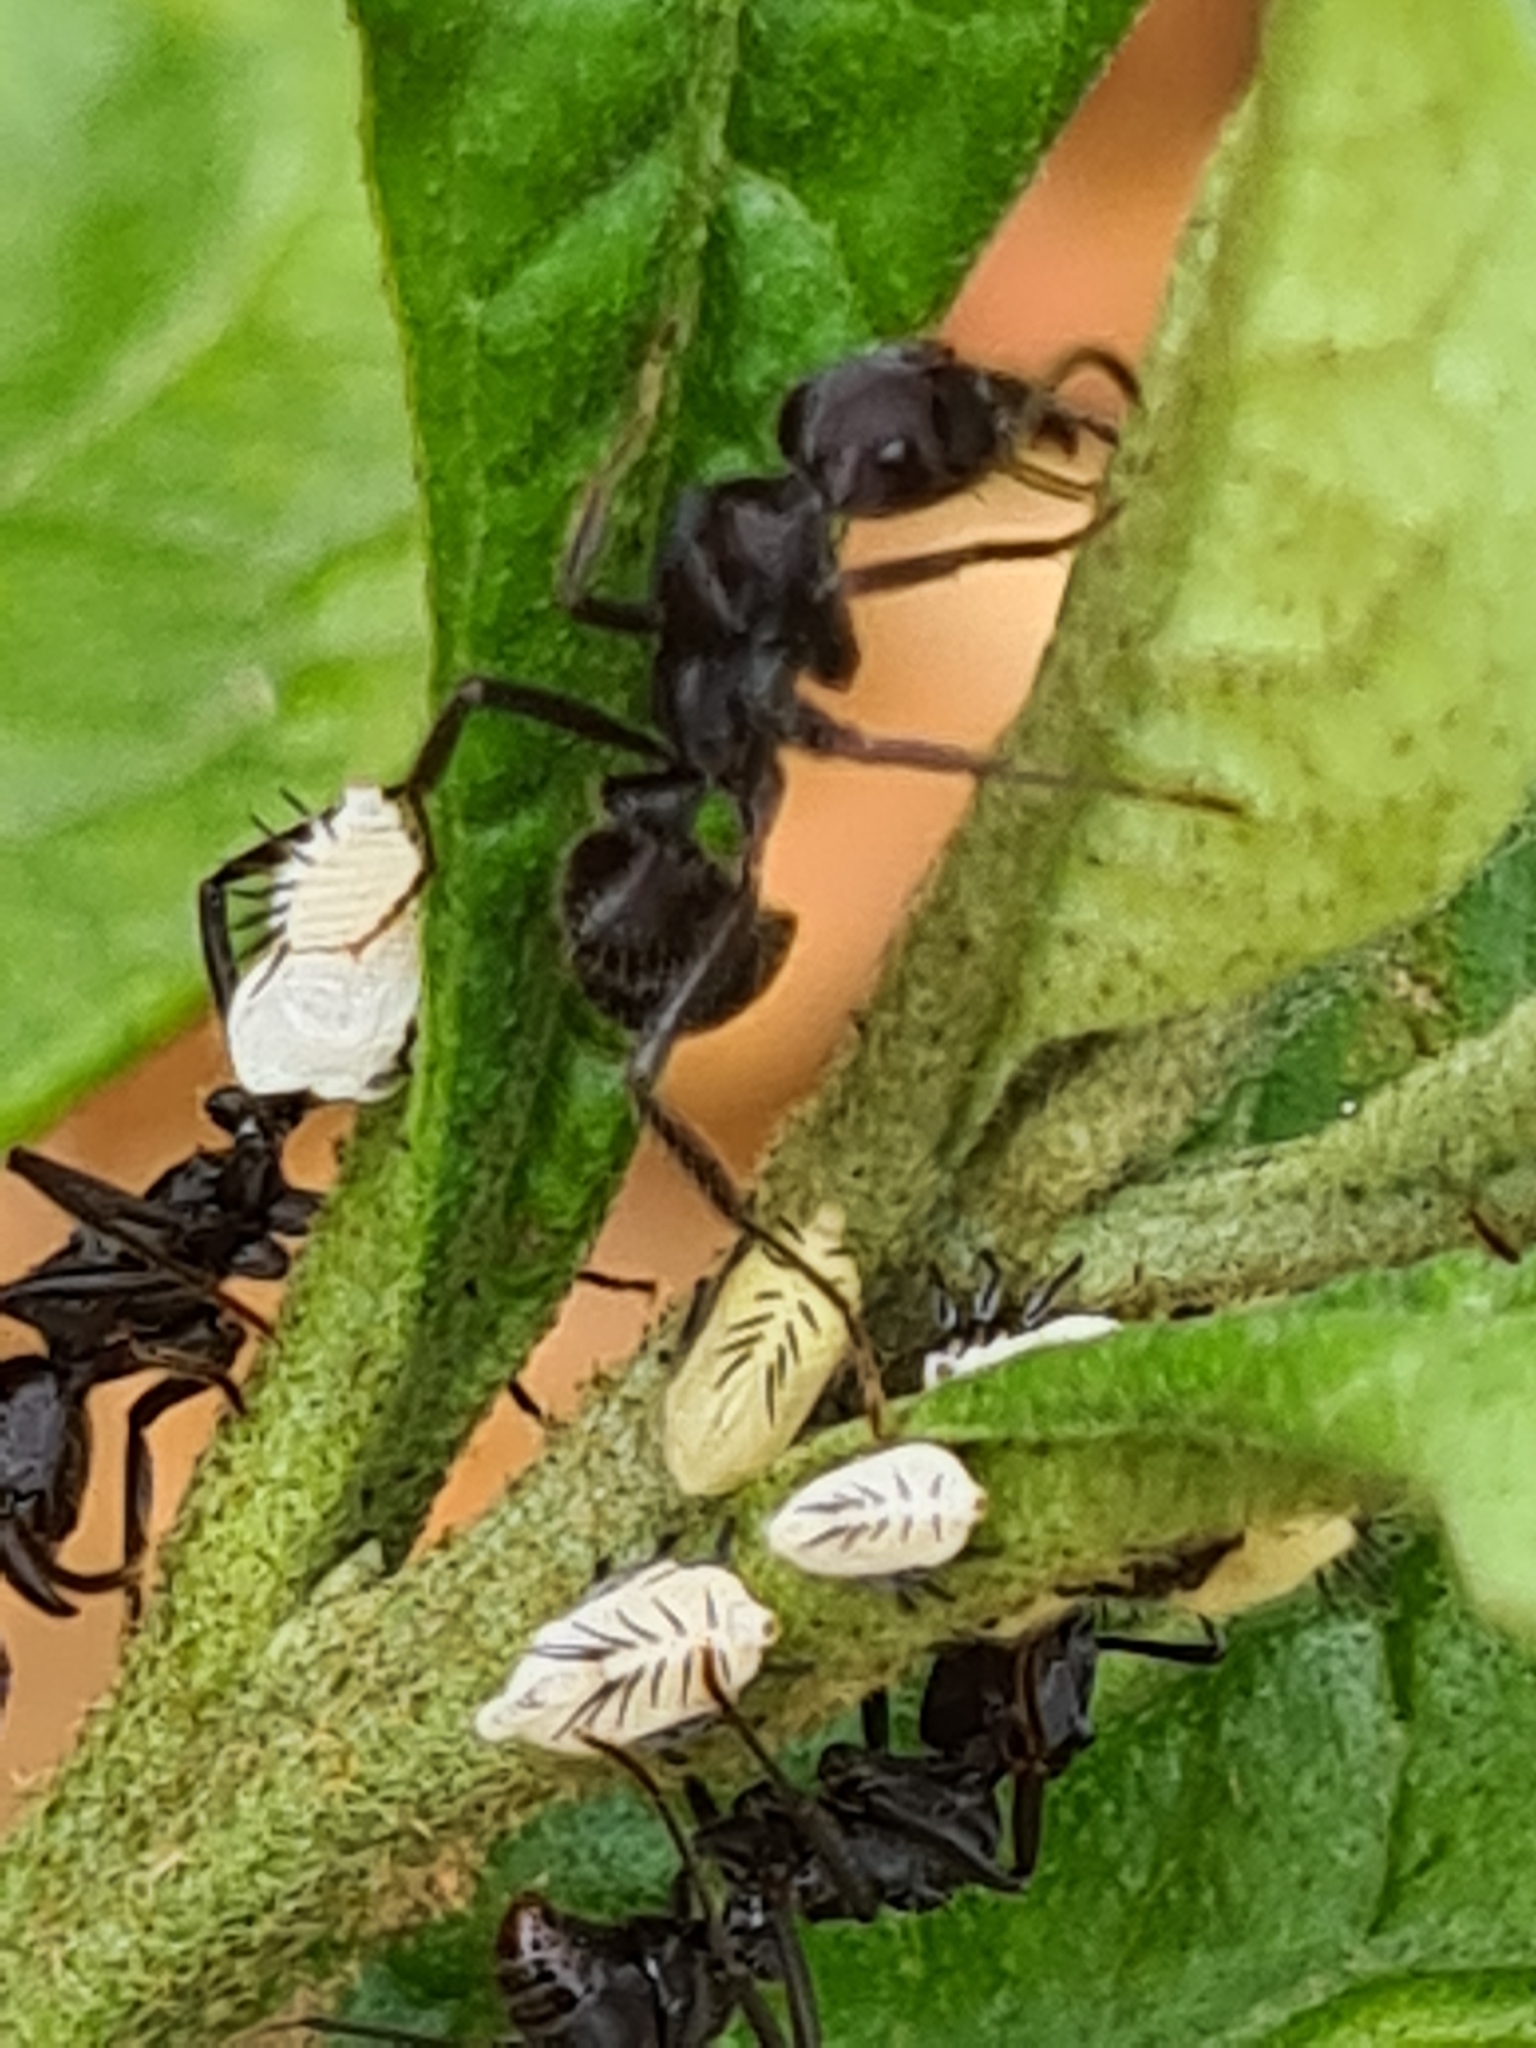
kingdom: Animalia
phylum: Arthropoda
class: Insecta
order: Hymenoptera
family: Formicidae
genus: Ectatomma
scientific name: Ectatomma brunneum
